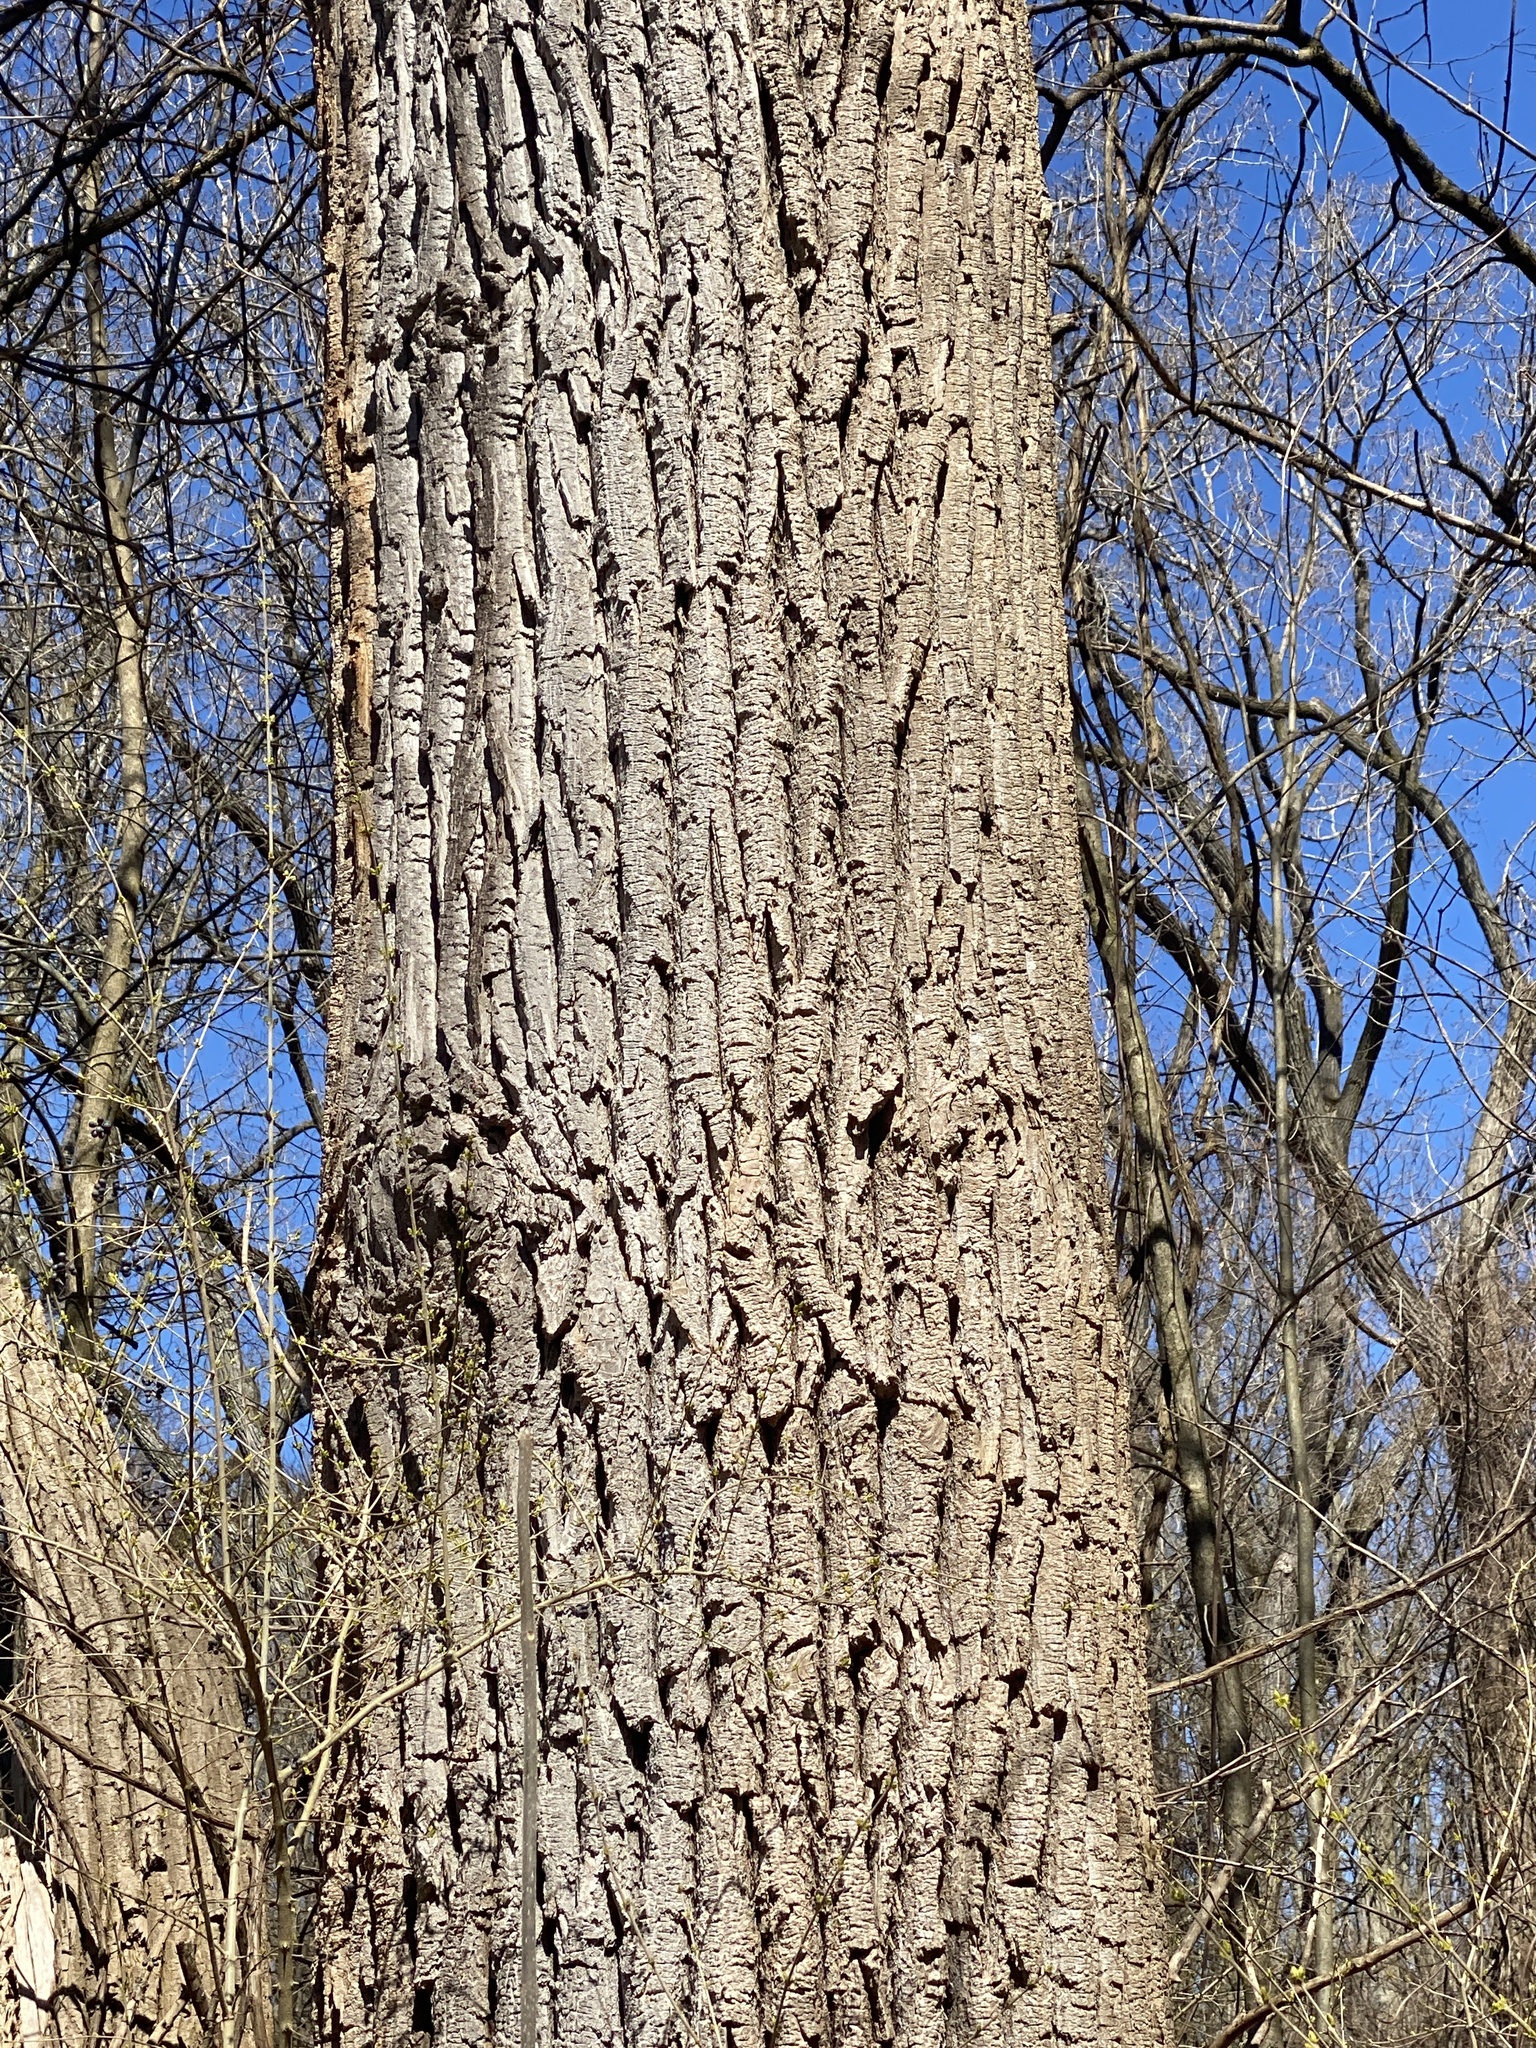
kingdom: Plantae
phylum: Tracheophyta
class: Magnoliopsida
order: Malpighiales
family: Salicaceae
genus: Populus
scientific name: Populus deltoides
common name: Eastern cottonwood
